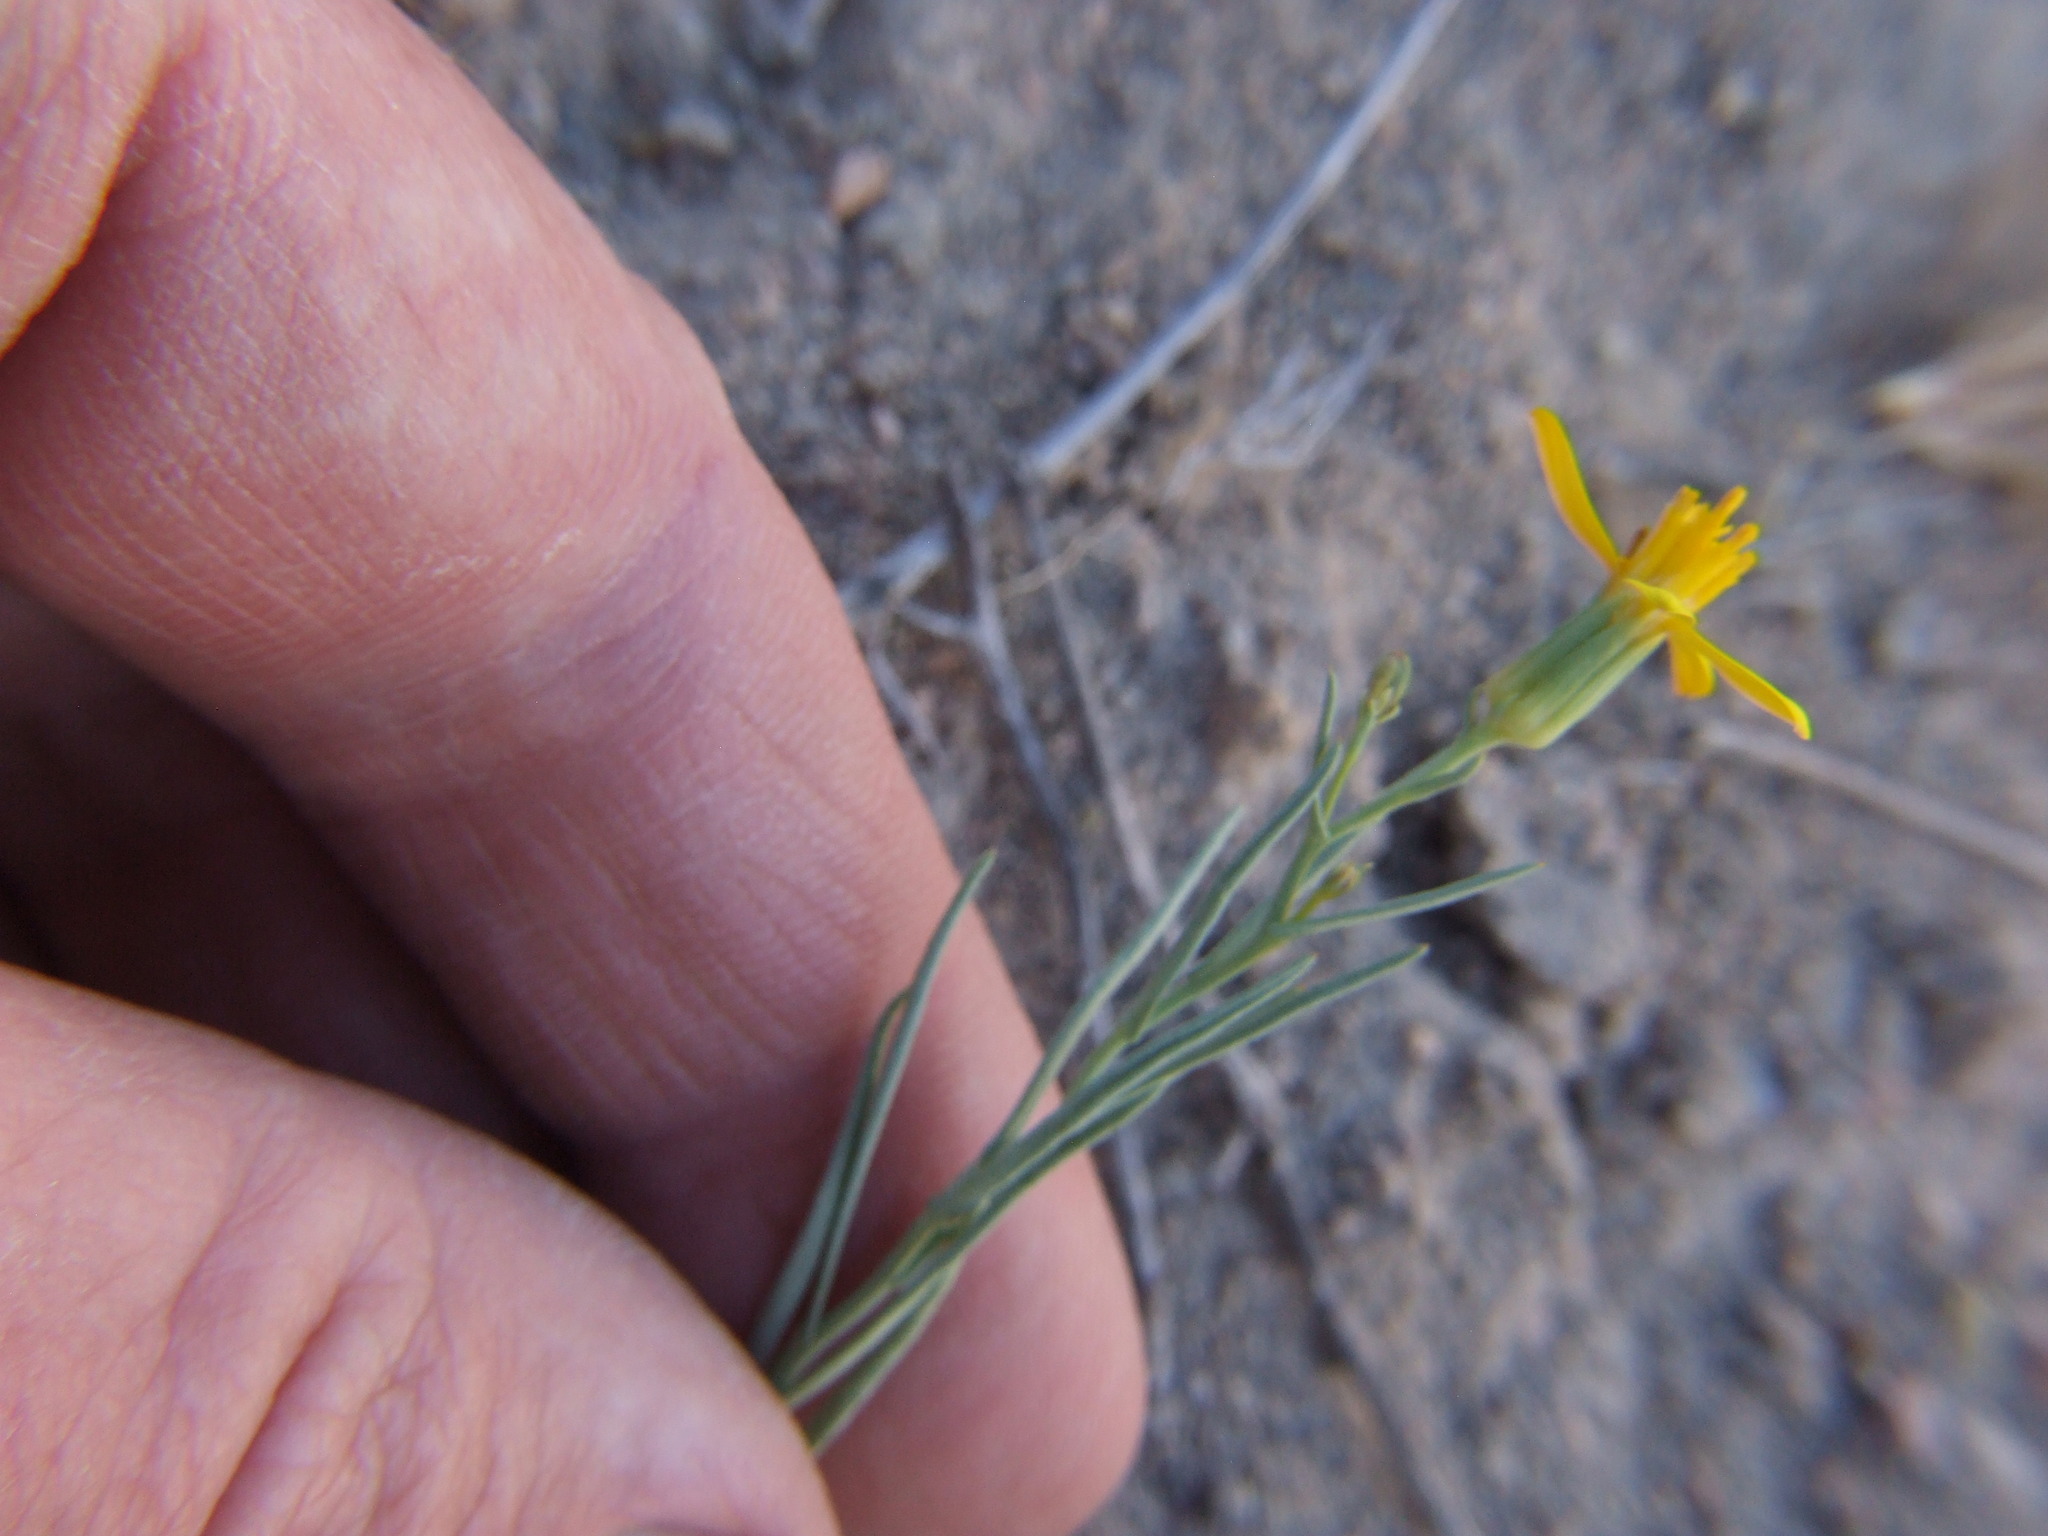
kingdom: Plantae
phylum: Tracheophyta
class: Magnoliopsida
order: Asterales
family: Asteraceae
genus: Senecio
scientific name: Senecio yurensis
